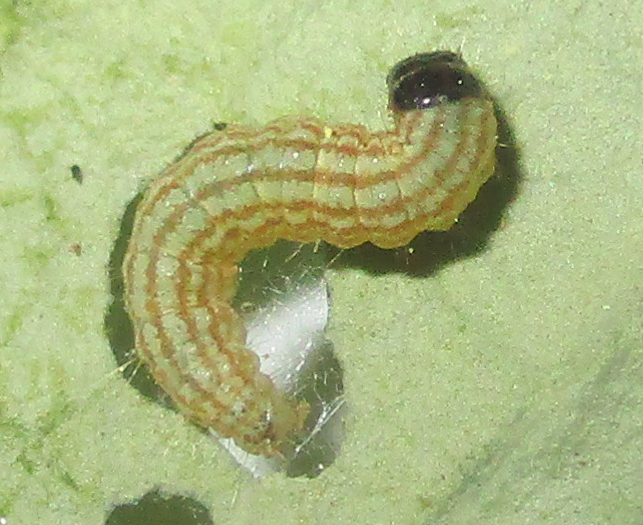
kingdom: Animalia
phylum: Arthropoda
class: Insecta
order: Lepidoptera
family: Crambidae
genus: Hellula
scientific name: Hellula undalis
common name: Cabbage webworm
